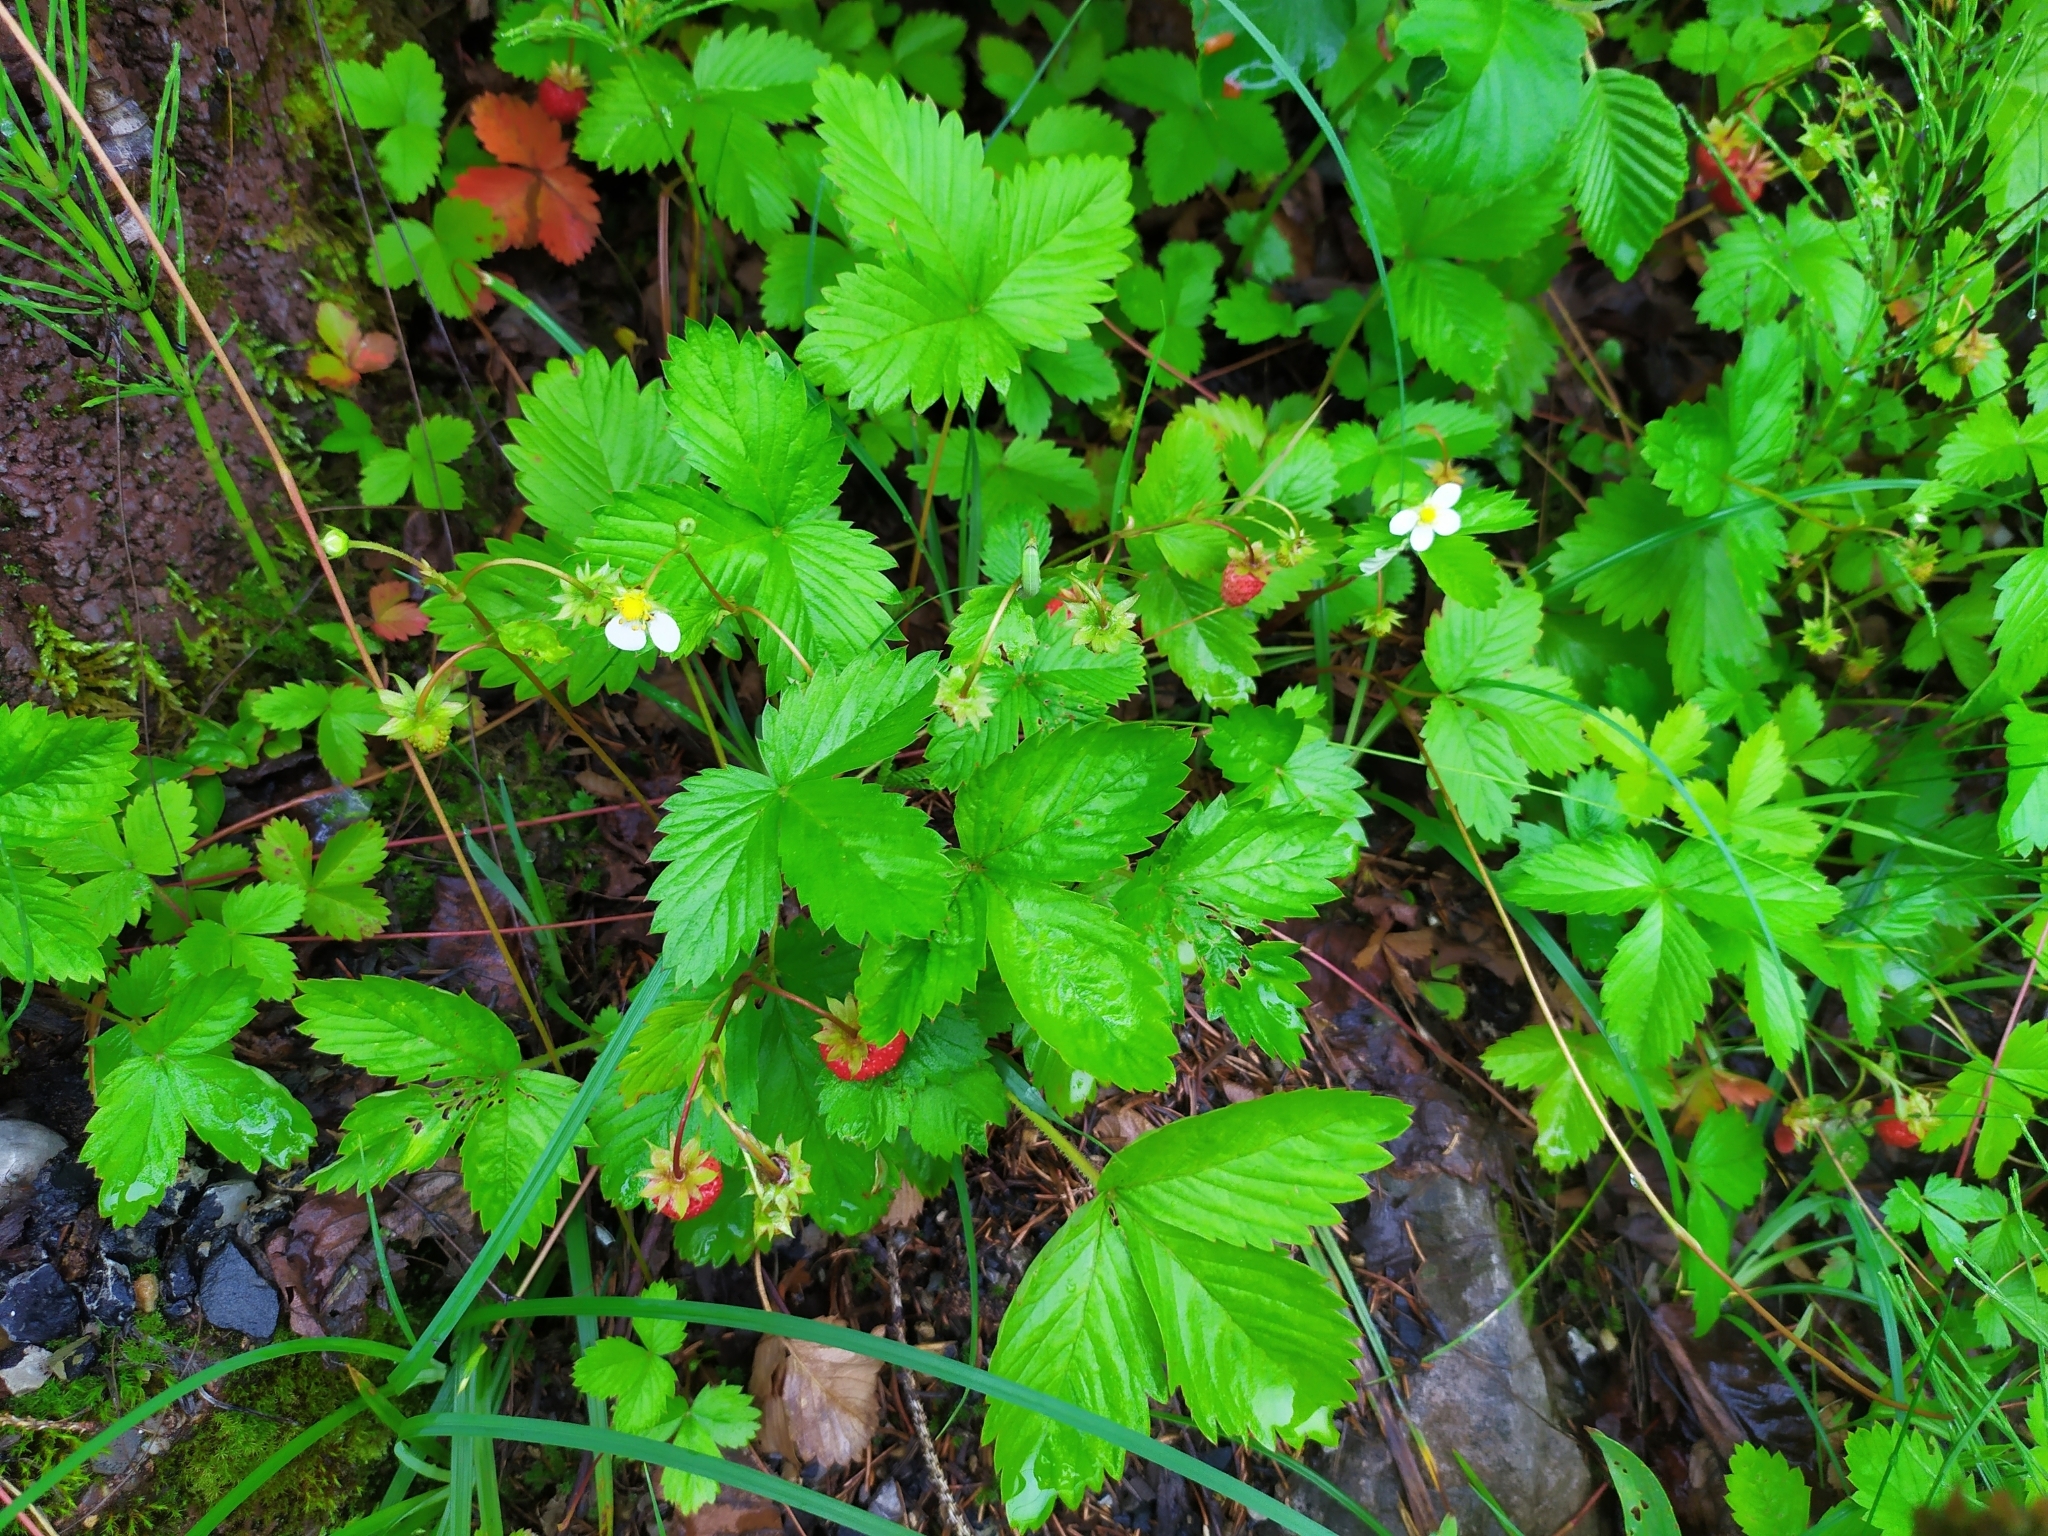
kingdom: Plantae
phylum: Tracheophyta
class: Magnoliopsida
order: Rosales
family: Rosaceae
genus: Fragaria
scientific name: Fragaria vesca
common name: Wild strawberry
